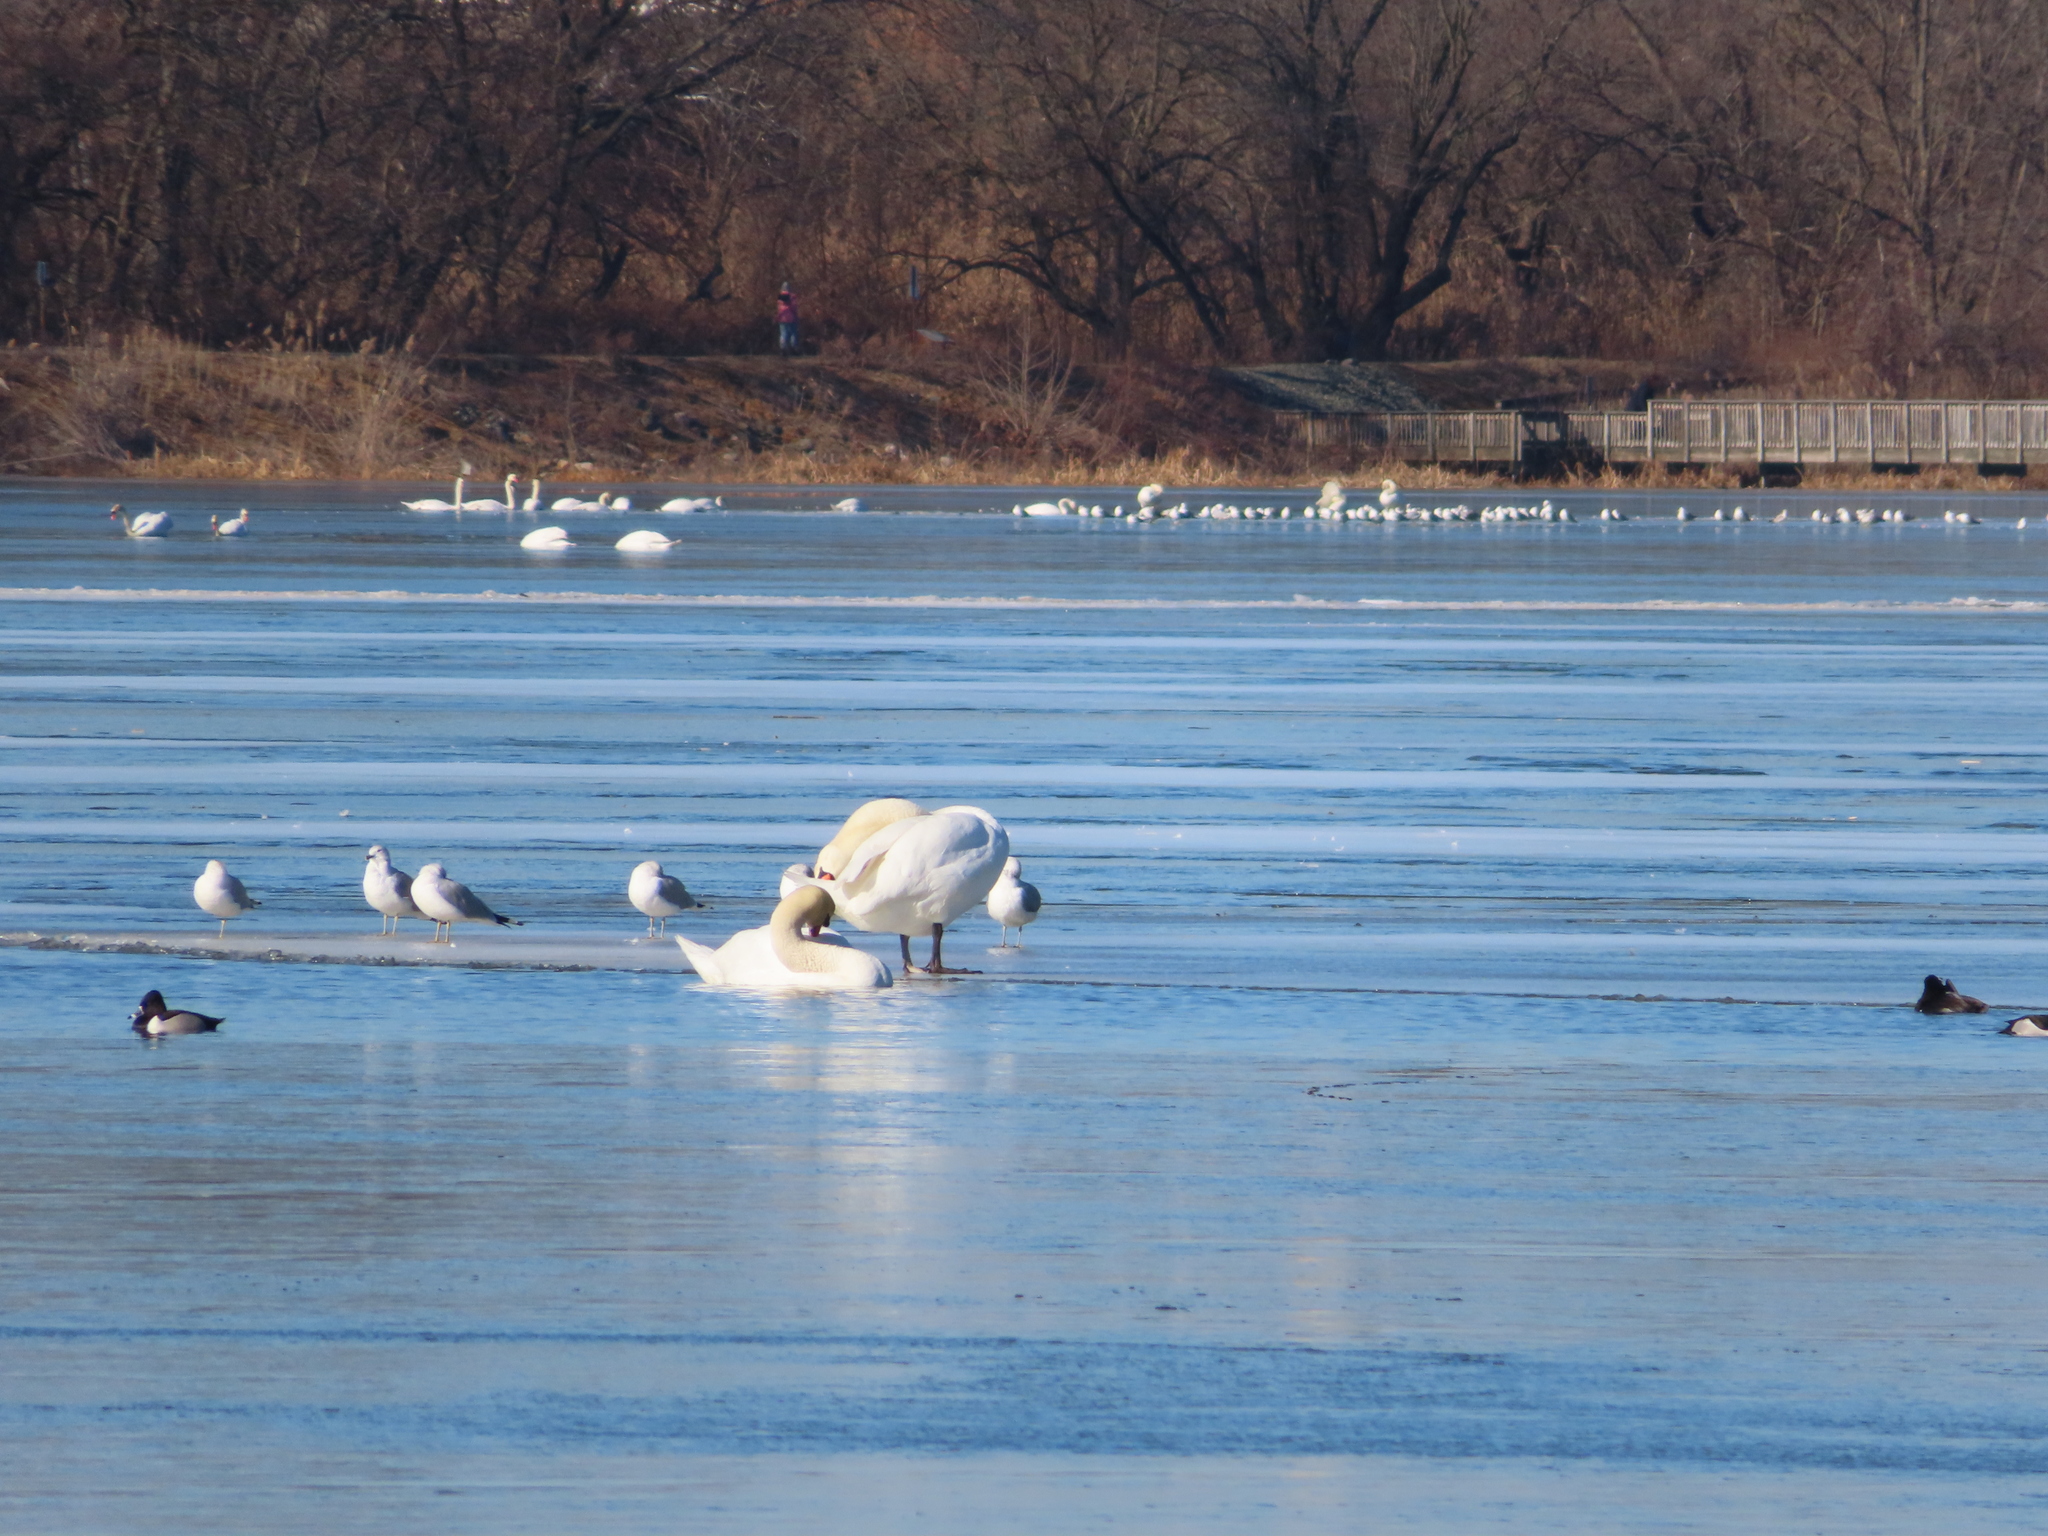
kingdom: Animalia
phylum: Chordata
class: Aves
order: Anseriformes
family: Anatidae
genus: Cygnus
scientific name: Cygnus olor
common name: Mute swan
